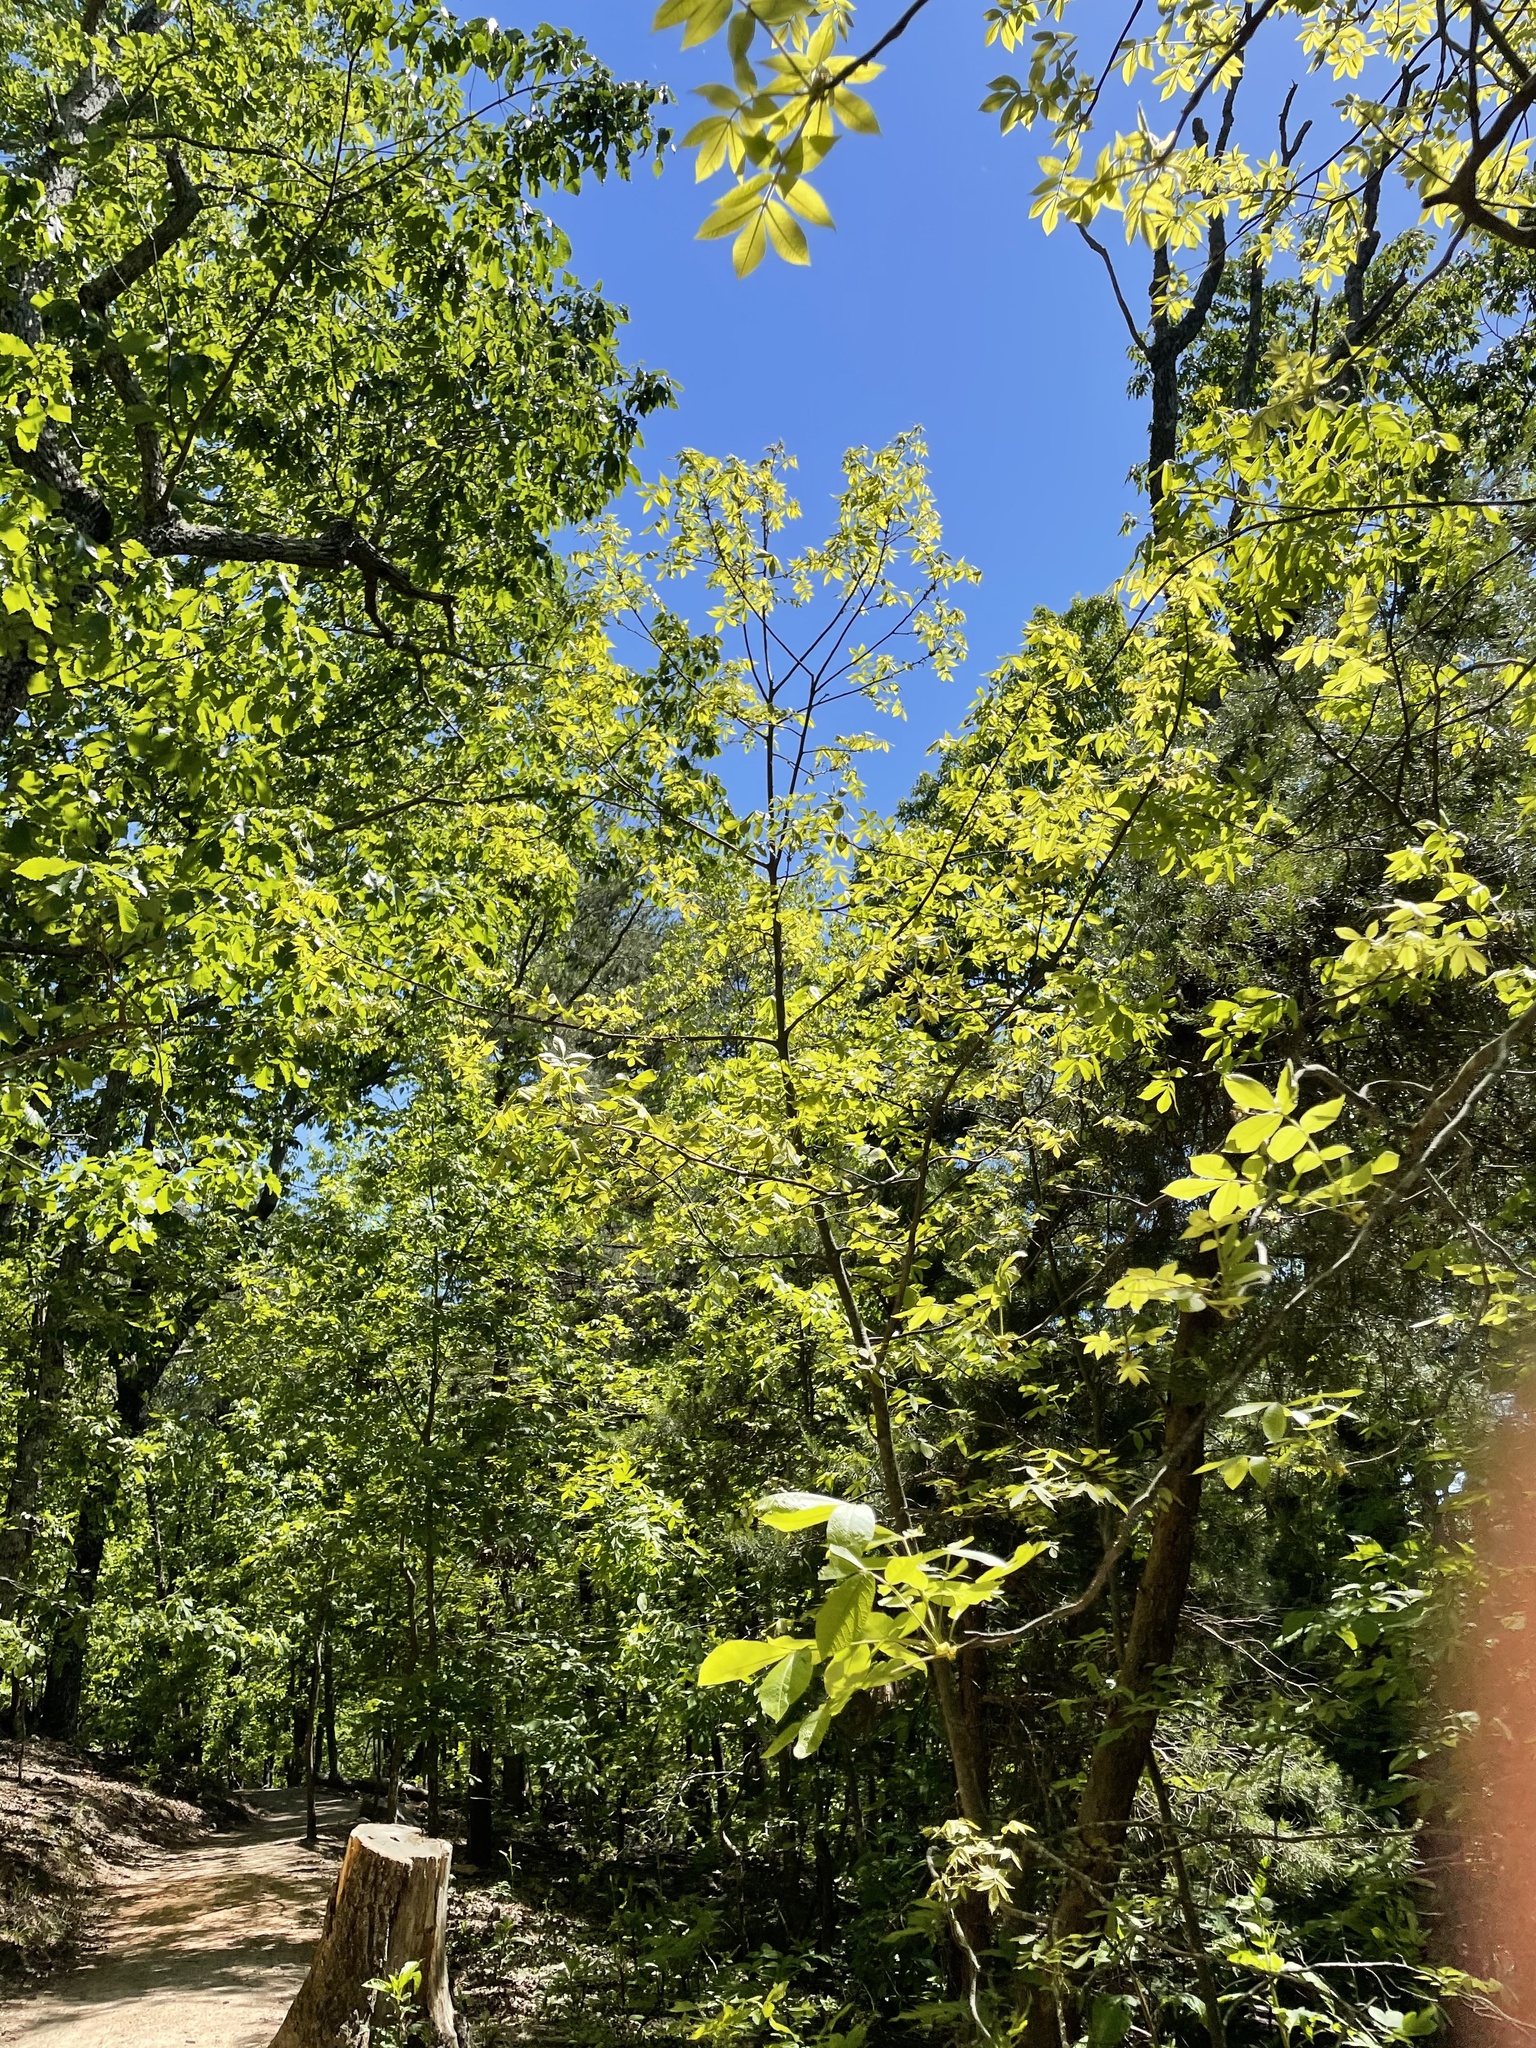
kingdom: Plantae
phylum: Tracheophyta
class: Magnoliopsida
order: Fagales
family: Juglandaceae
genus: Carya
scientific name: Carya alba
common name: Mockernut hickory
